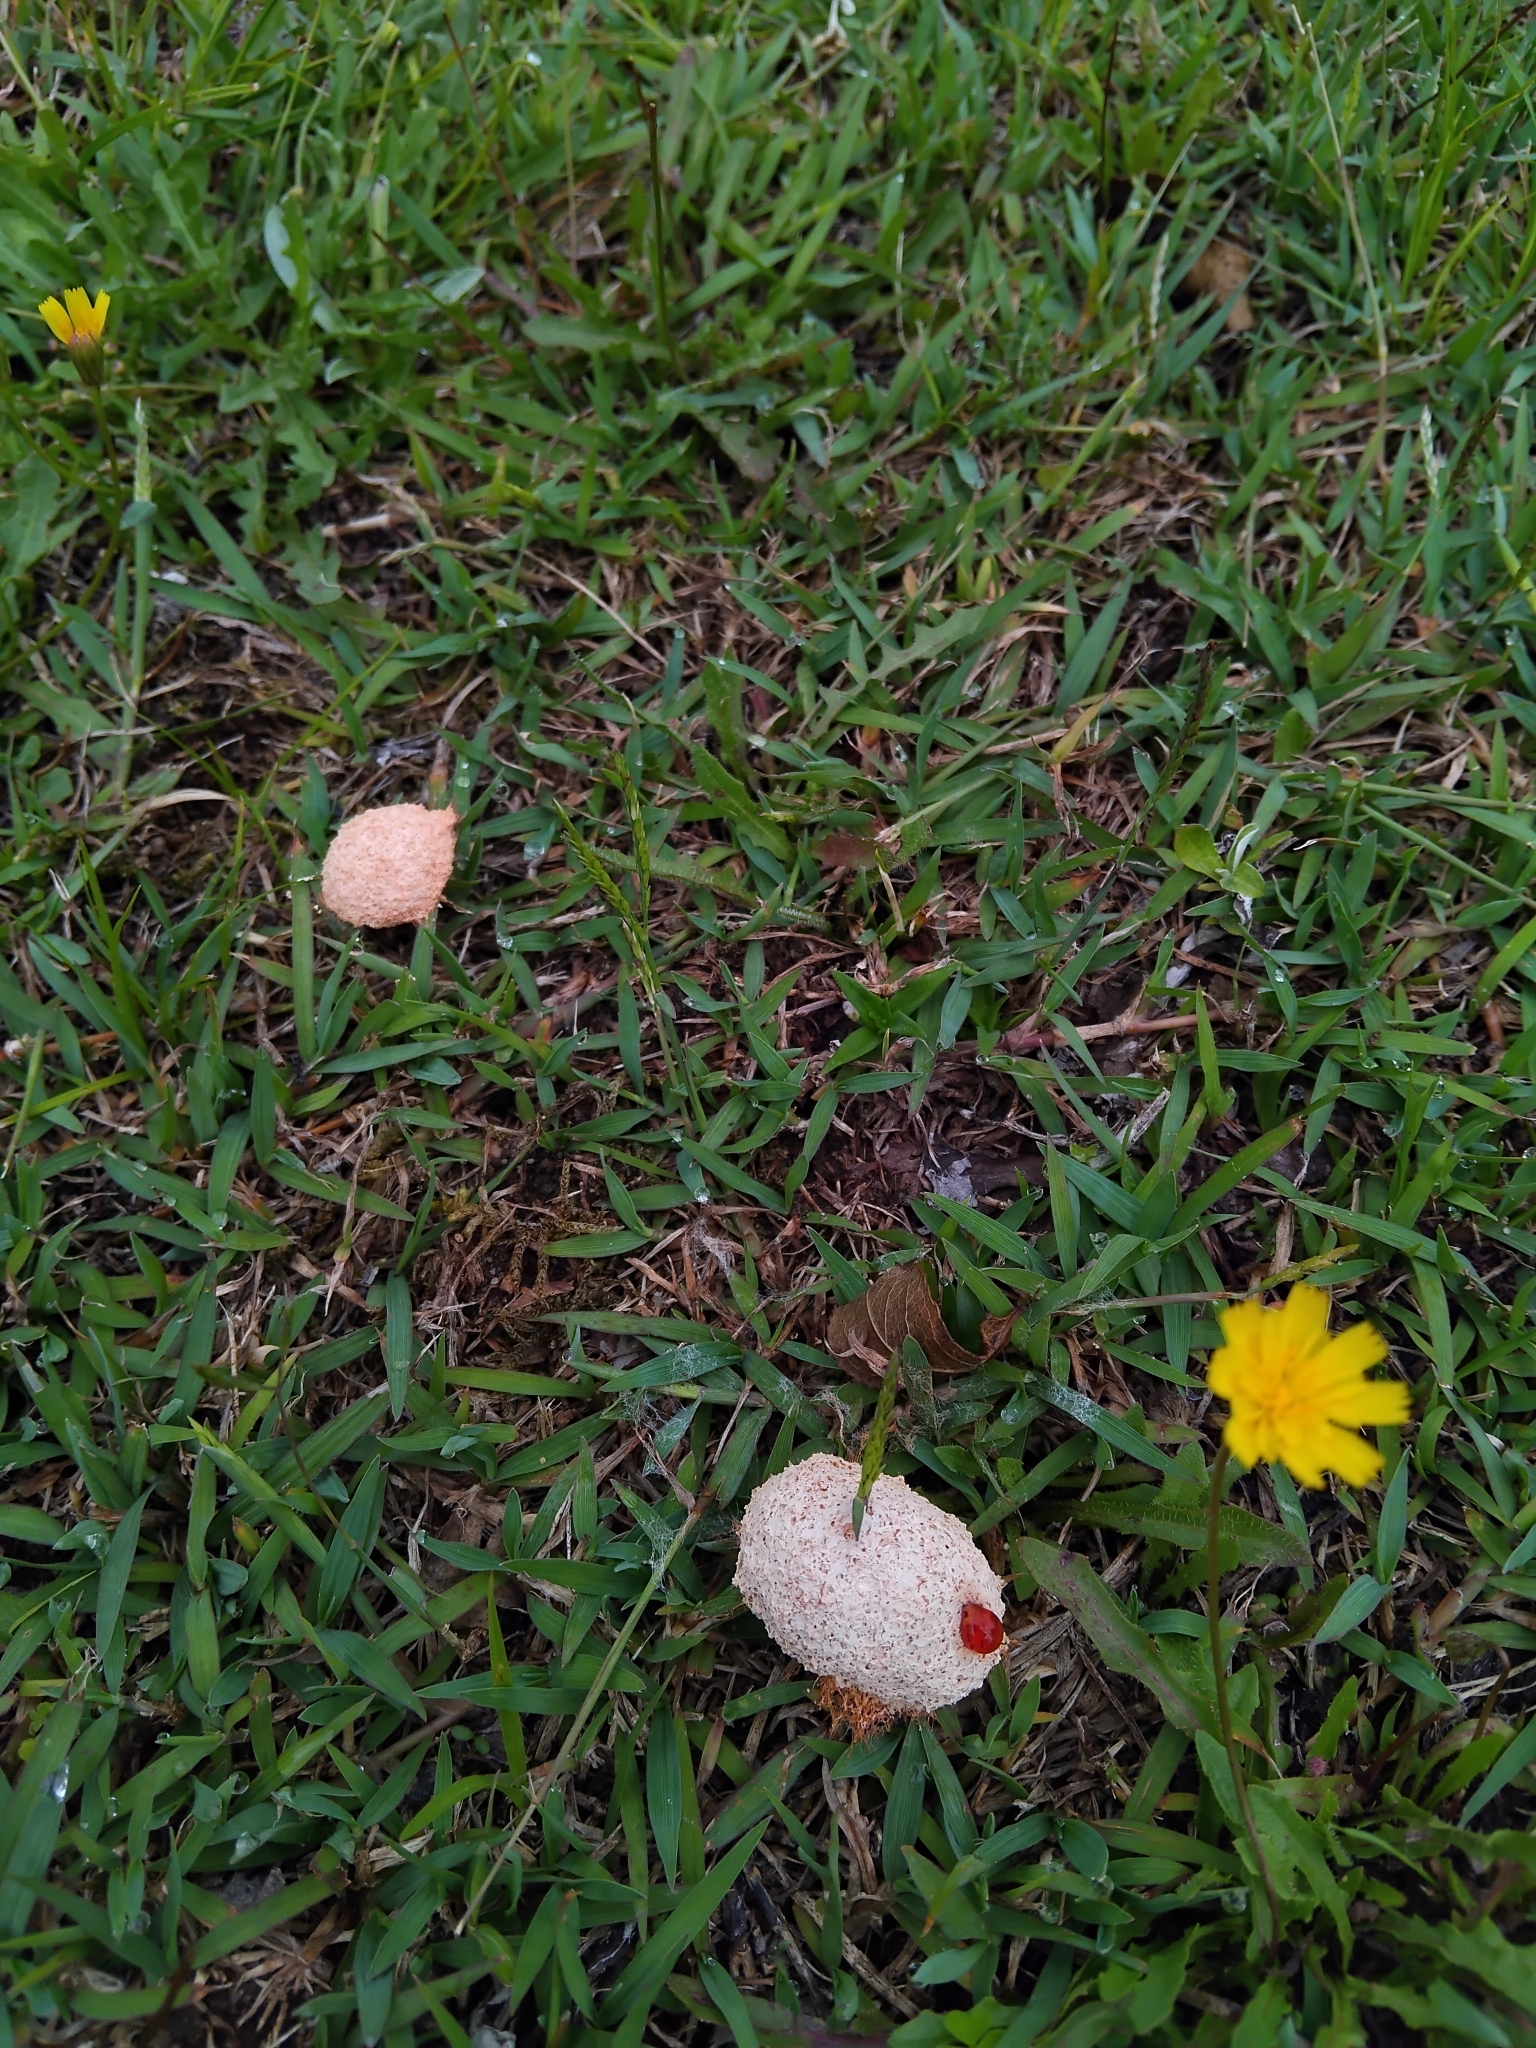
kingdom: Protozoa
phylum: Mycetozoa
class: Myxomycetes
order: Physarales
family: Physaraceae
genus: Fuligo
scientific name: Fuligo septica
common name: Dog vomit slime mold
